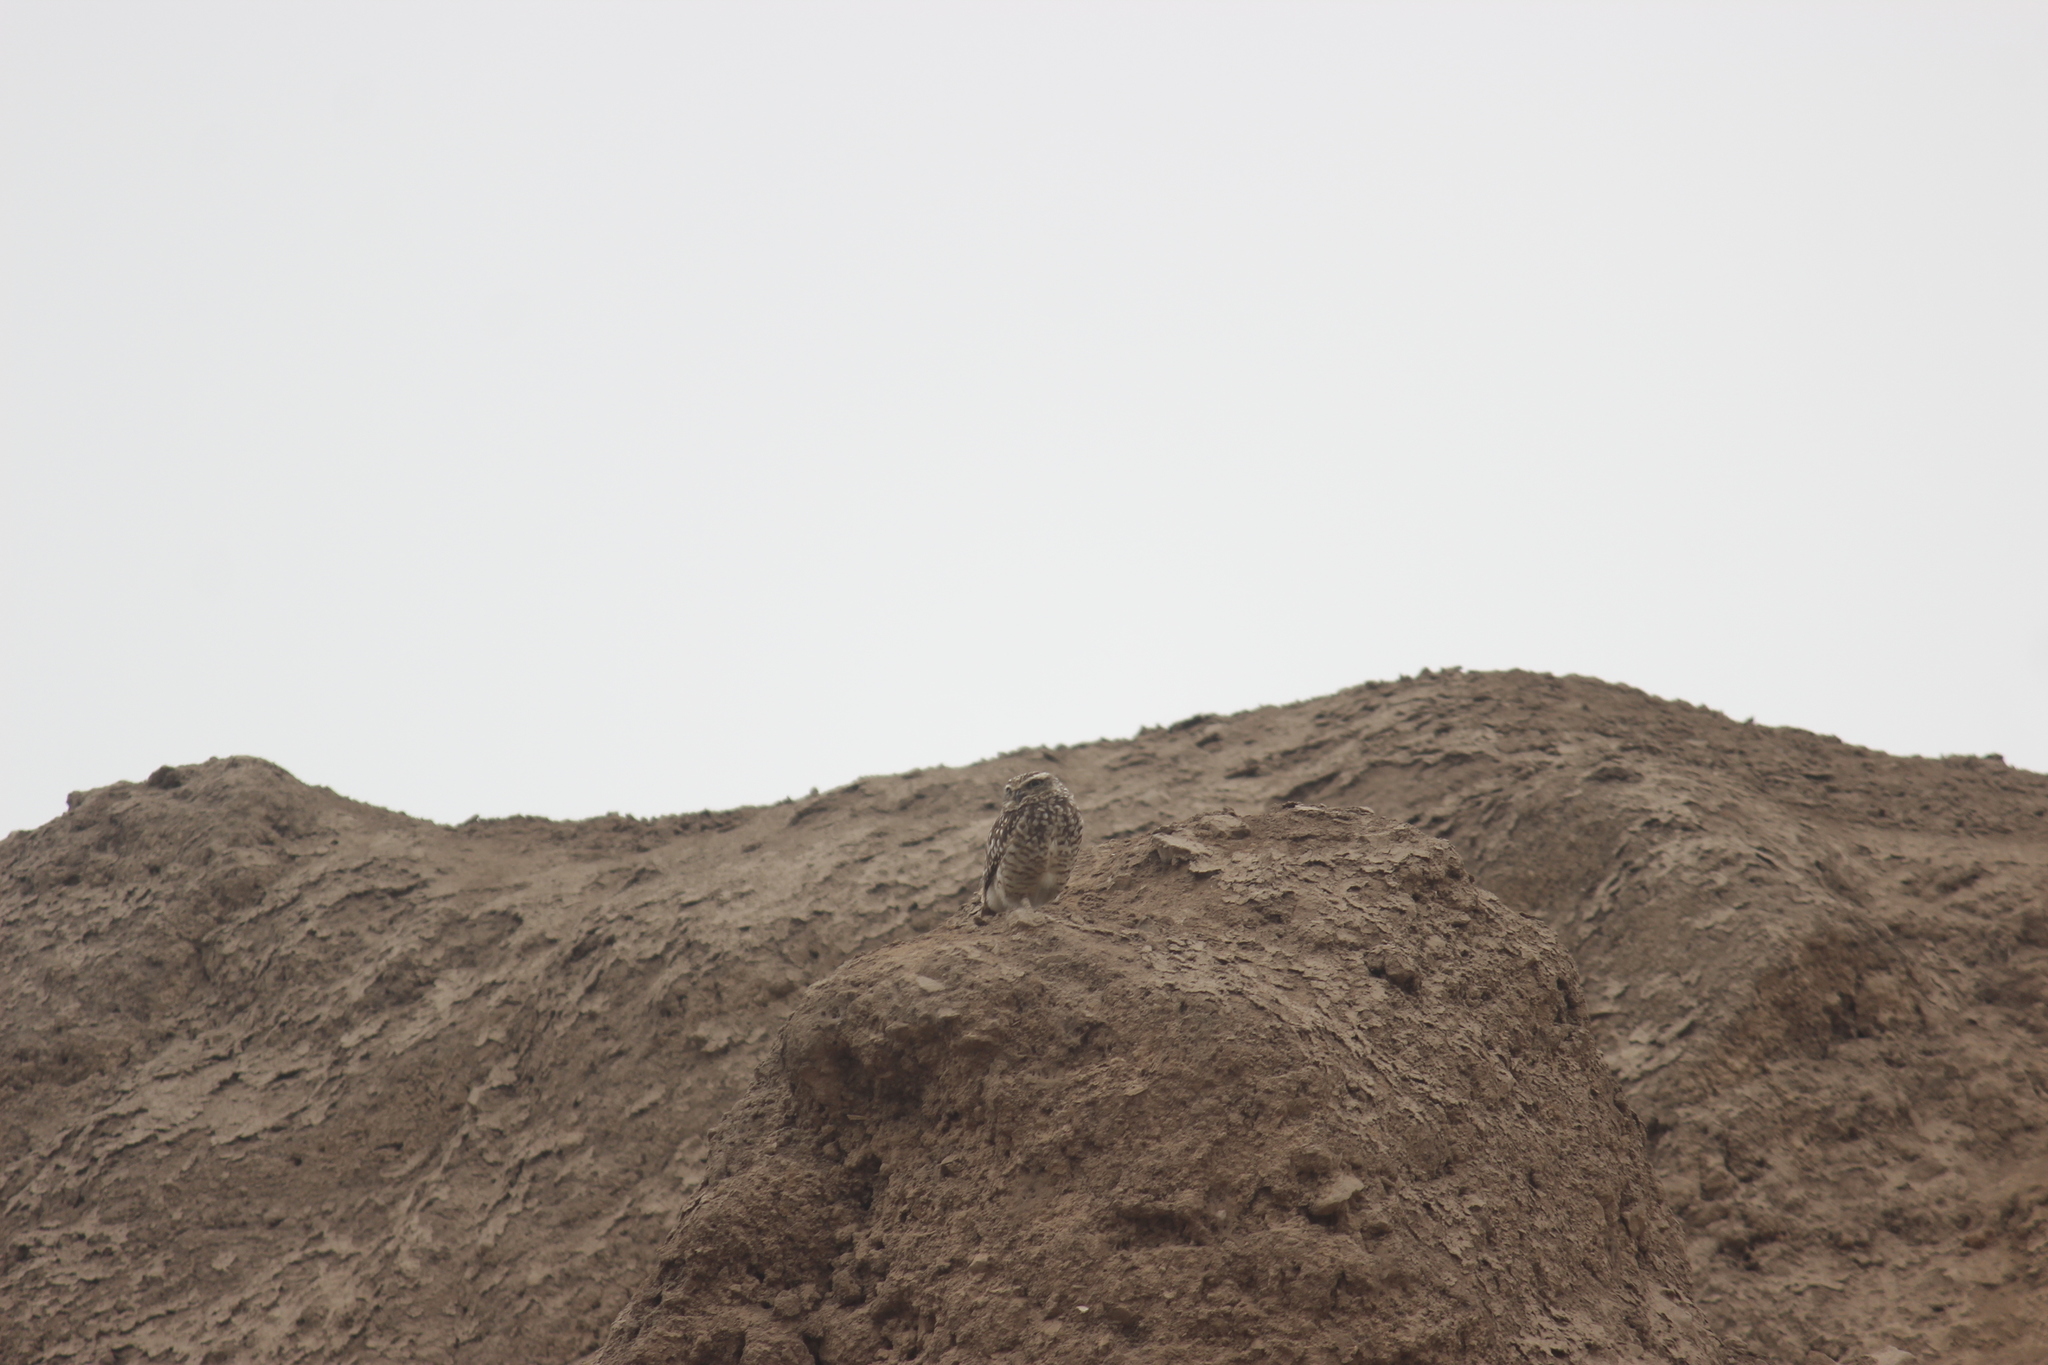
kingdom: Animalia
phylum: Chordata
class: Aves
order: Strigiformes
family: Strigidae
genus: Athene
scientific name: Athene cunicularia
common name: Burrowing owl
